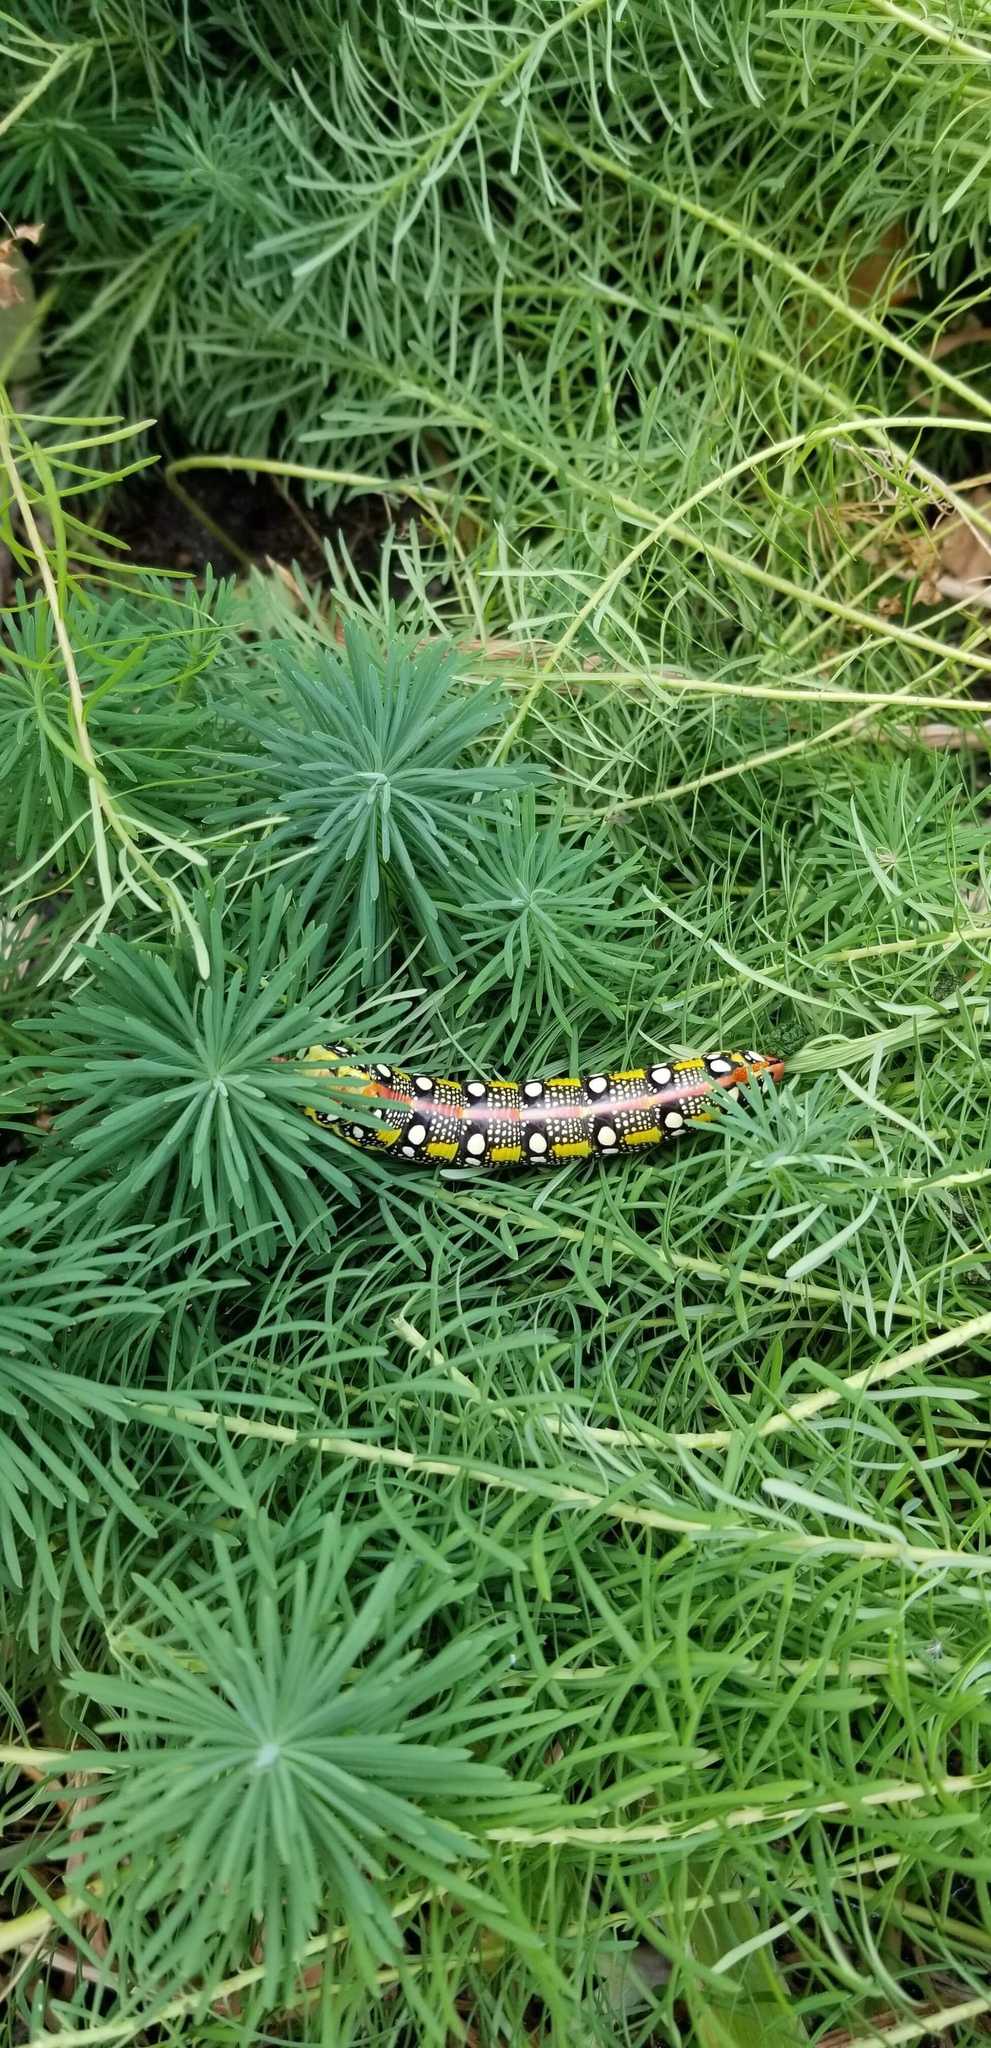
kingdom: Animalia
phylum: Arthropoda
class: Insecta
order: Lepidoptera
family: Sphingidae
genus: Hyles
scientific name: Hyles euphorbiae
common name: Spurge hawk-moth
